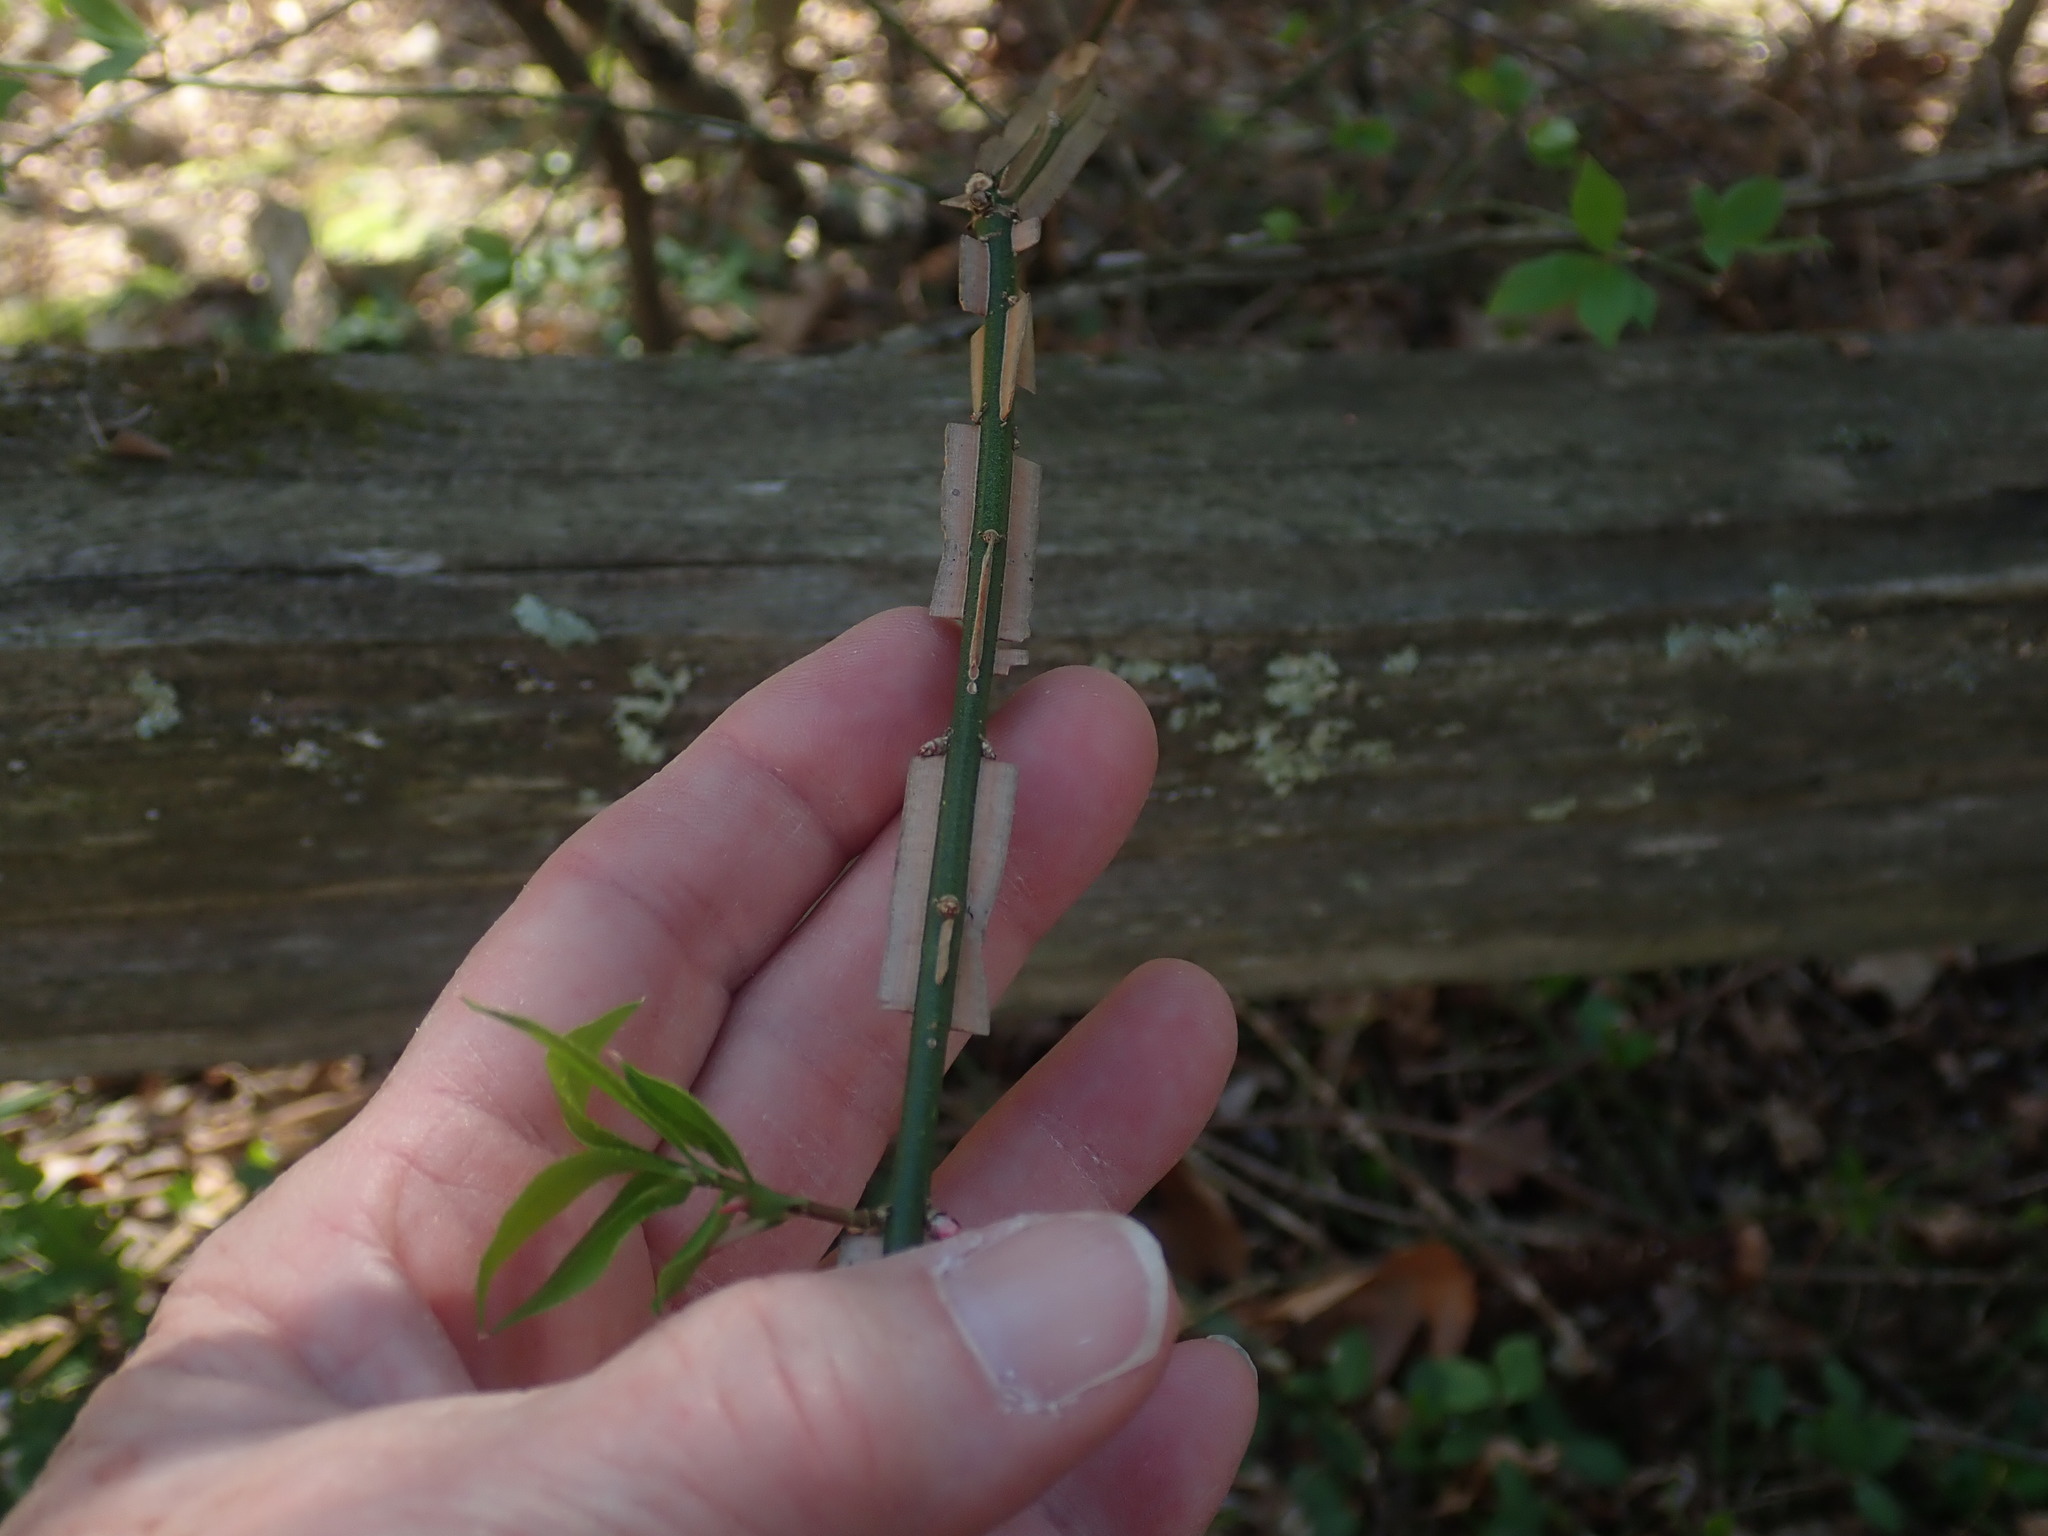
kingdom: Plantae
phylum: Tracheophyta
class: Magnoliopsida
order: Celastrales
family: Celastraceae
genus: Euonymus
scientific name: Euonymus alatus
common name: Winged euonymus
